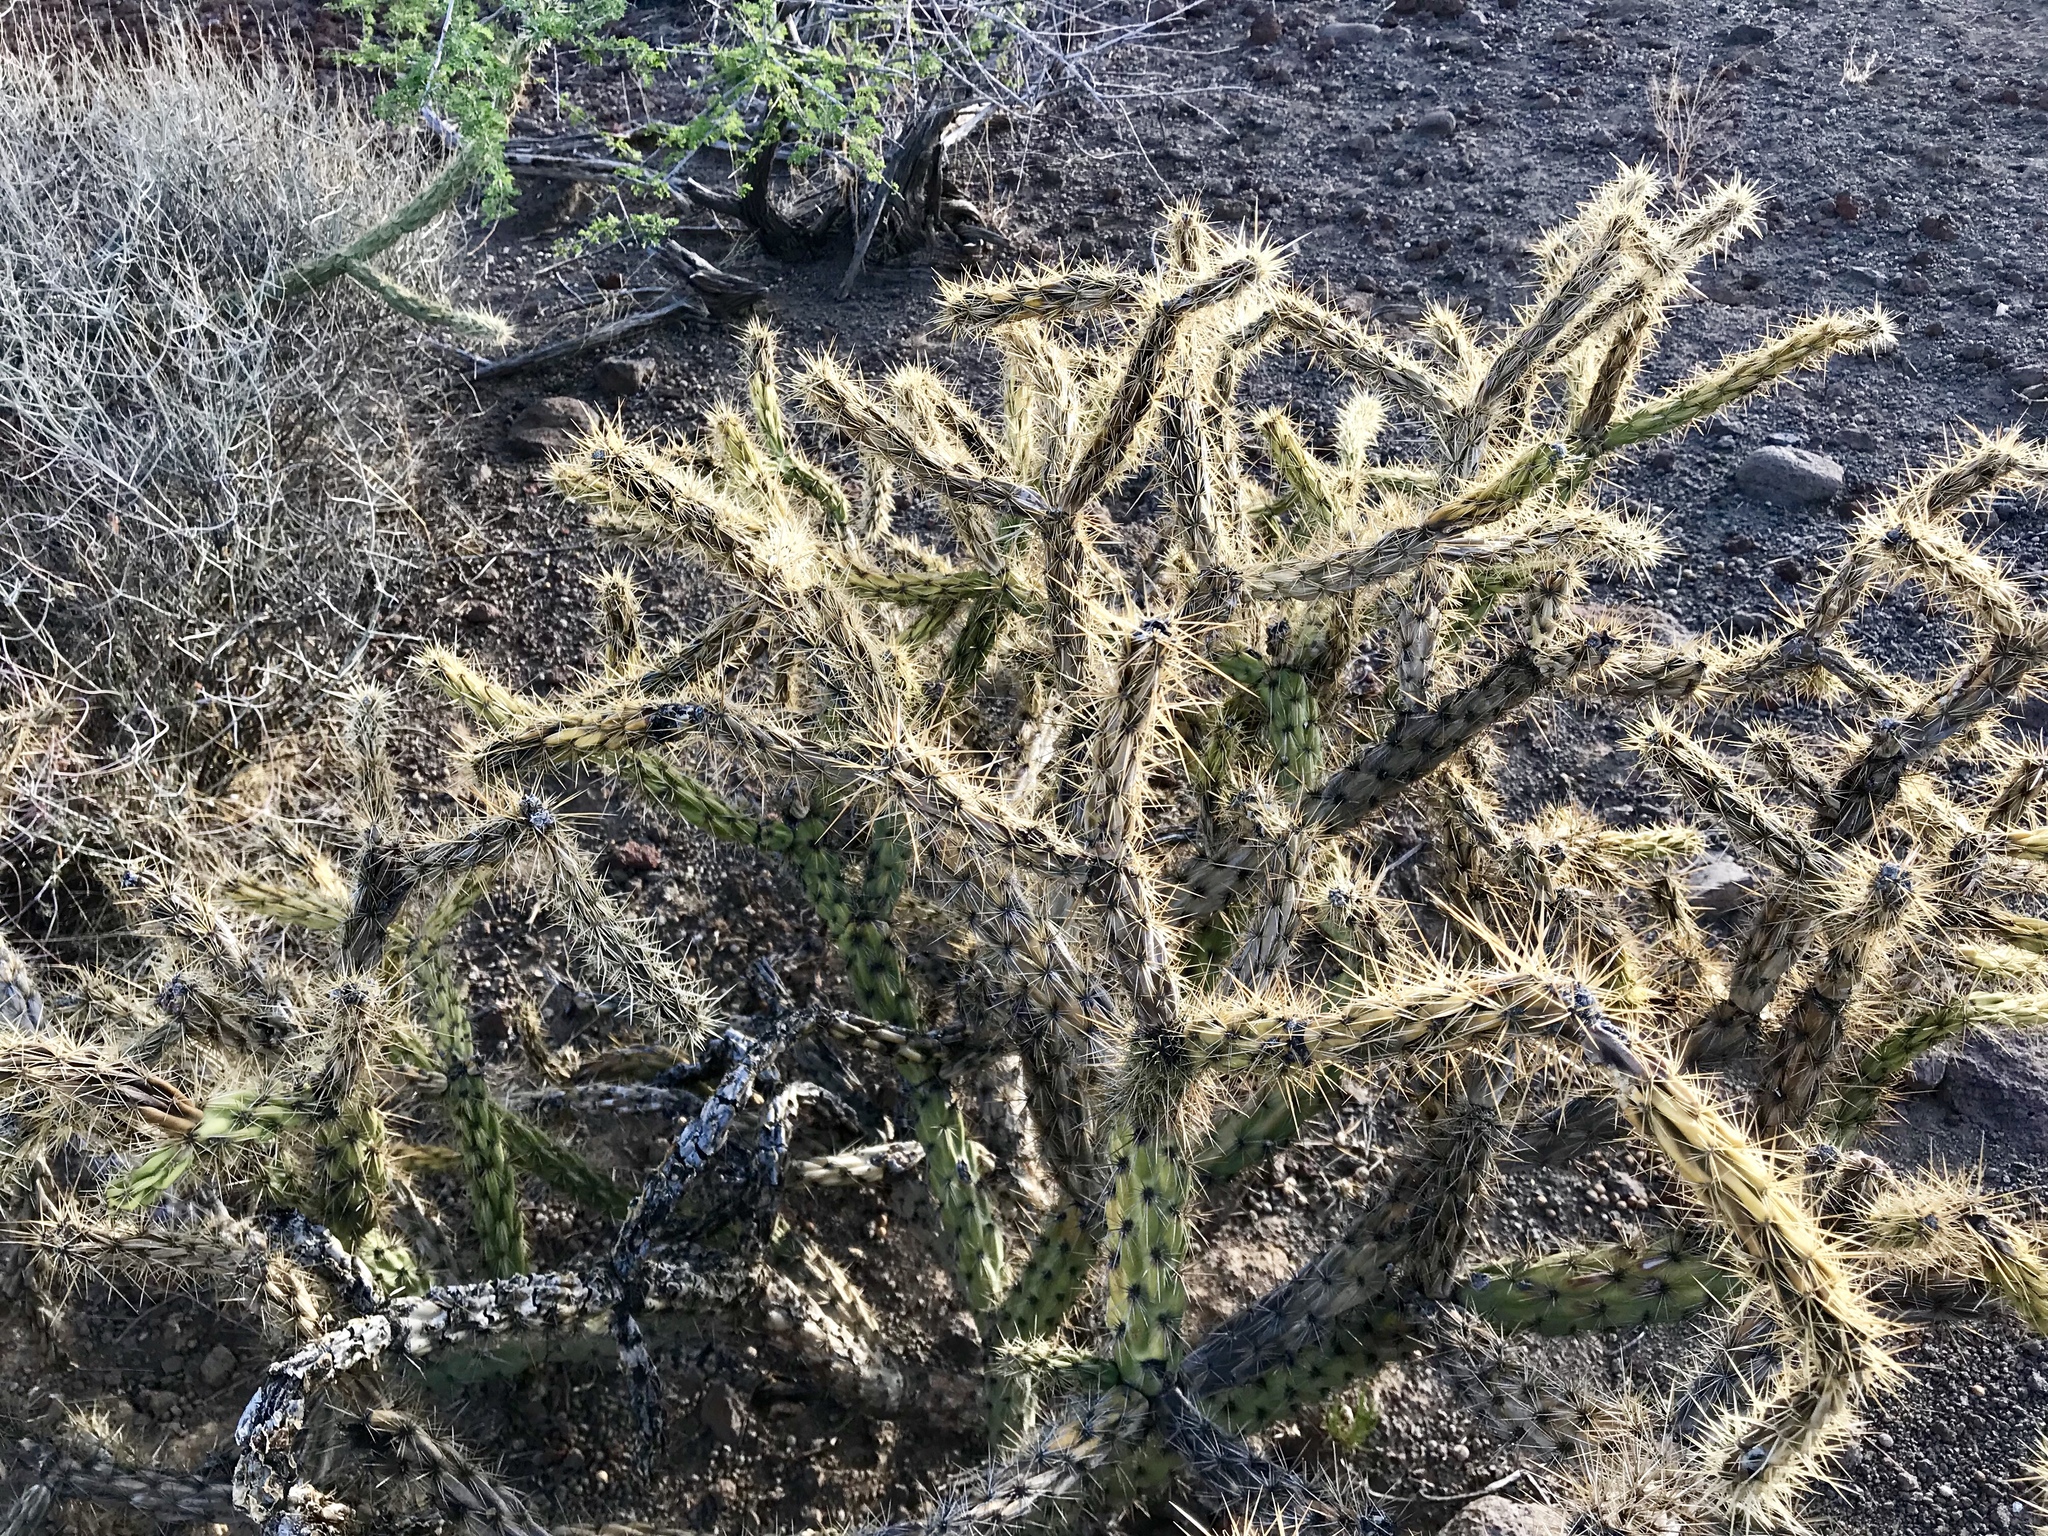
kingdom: Plantae
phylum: Tracheophyta
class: Magnoliopsida
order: Caryophyllales
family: Cactaceae
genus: Cylindropuntia
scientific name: Cylindropuntia acanthocarpa
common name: Buckhorn cholla
